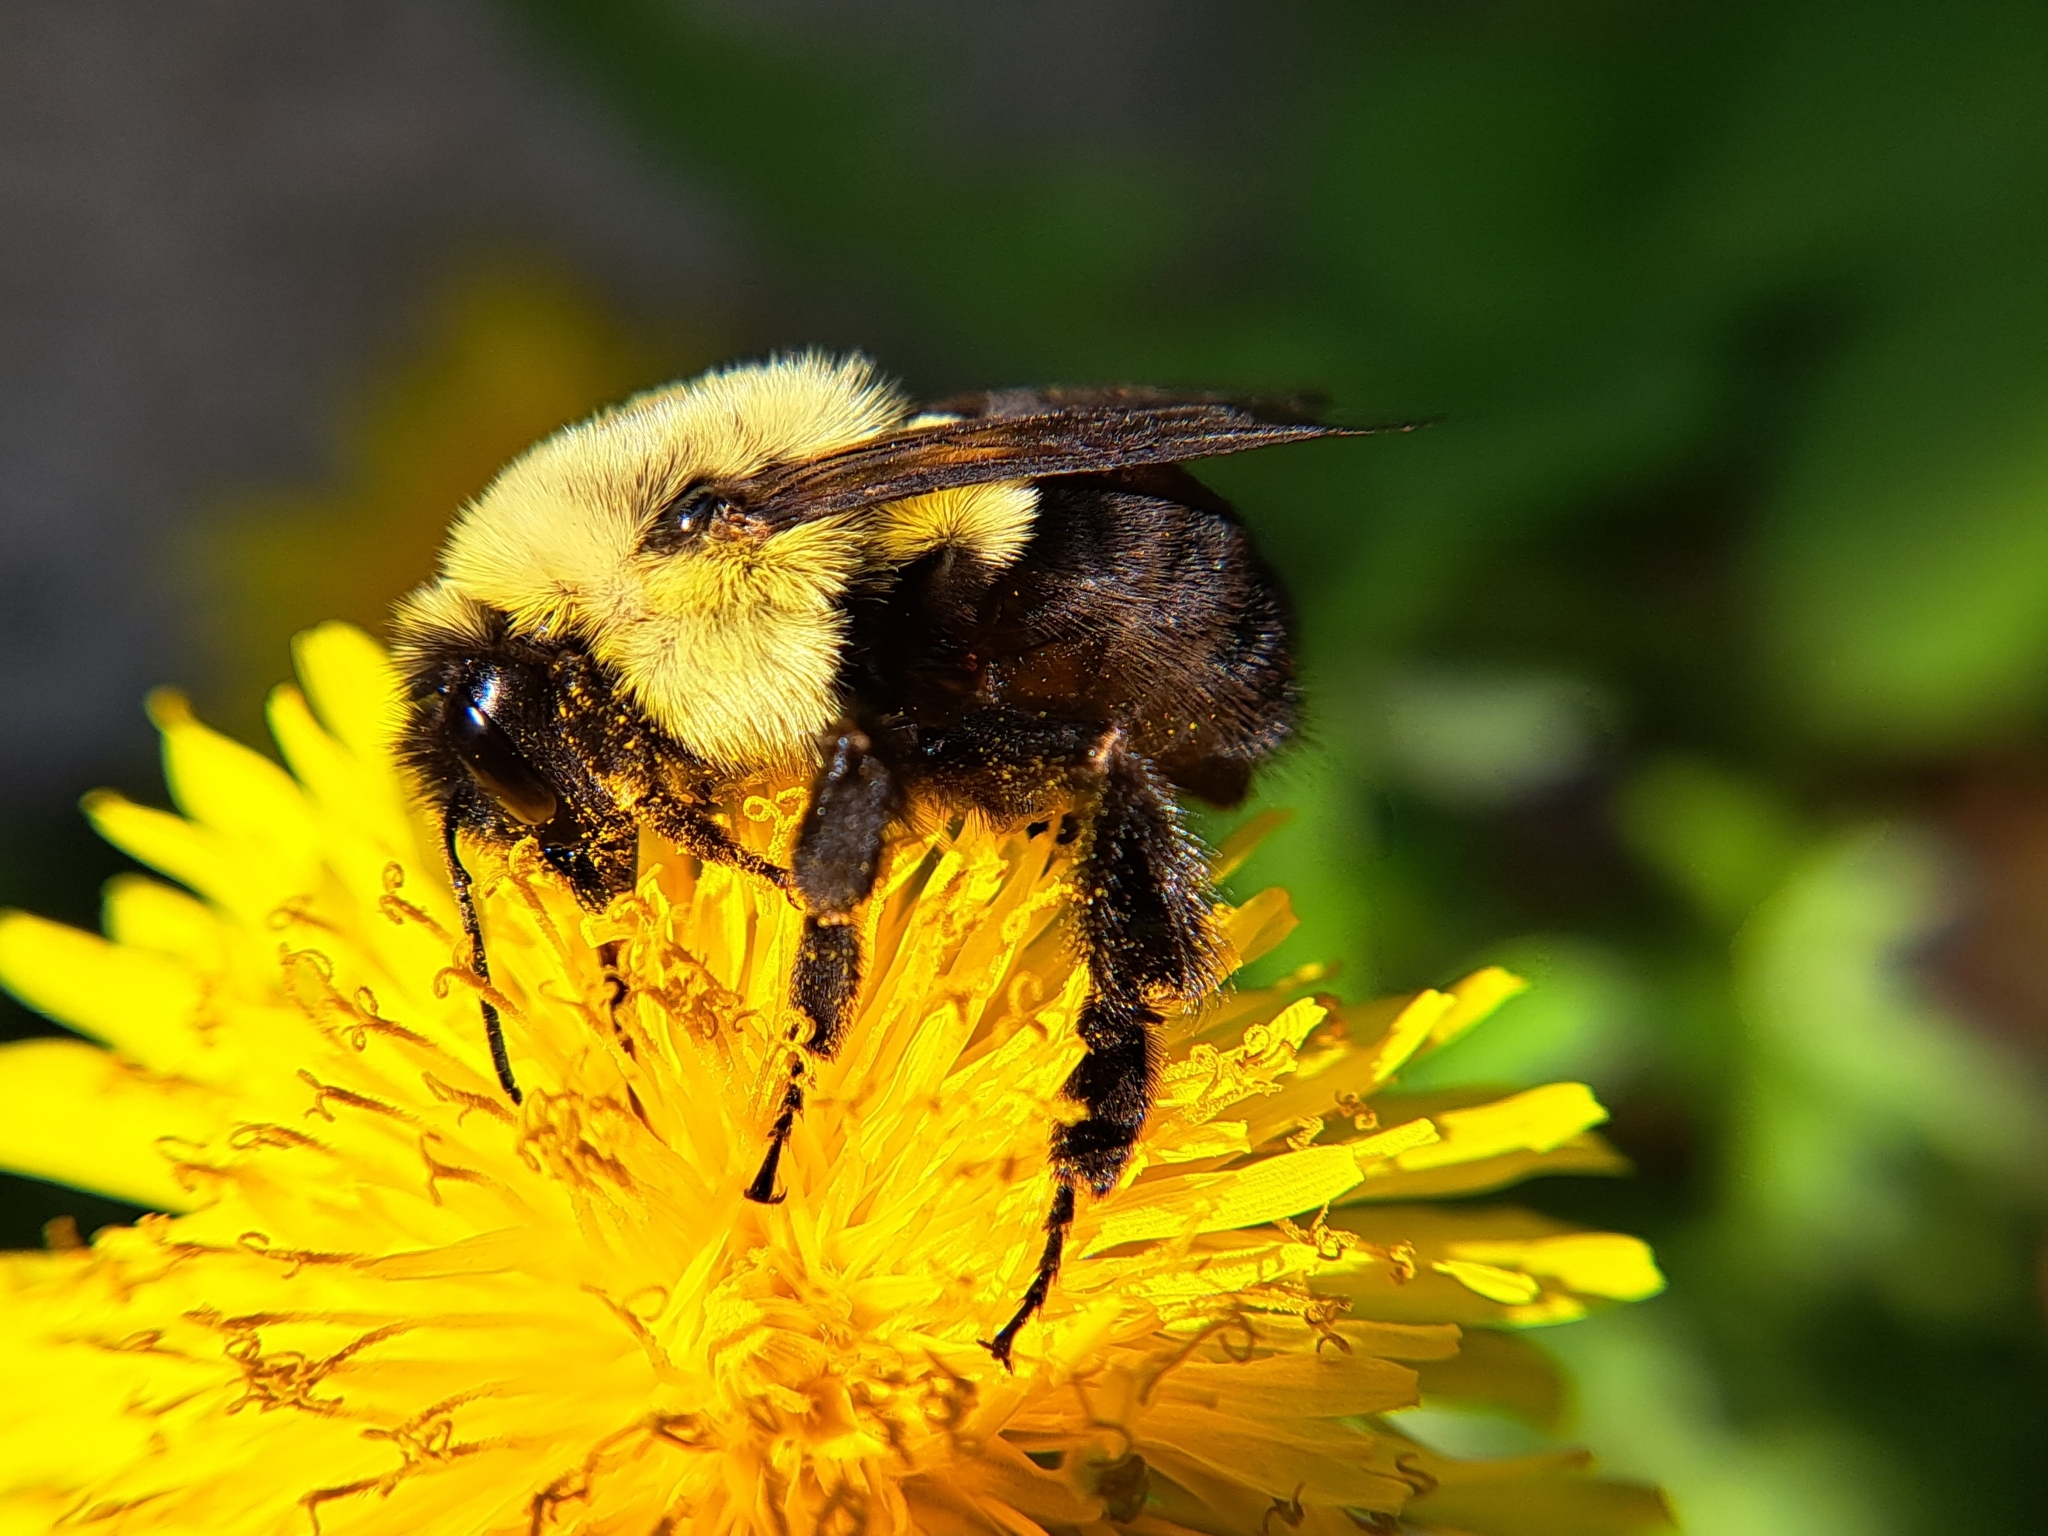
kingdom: Animalia
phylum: Arthropoda
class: Insecta
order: Hymenoptera
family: Apidae
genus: Bombus
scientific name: Bombus impatiens
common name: Common eastern bumble bee
